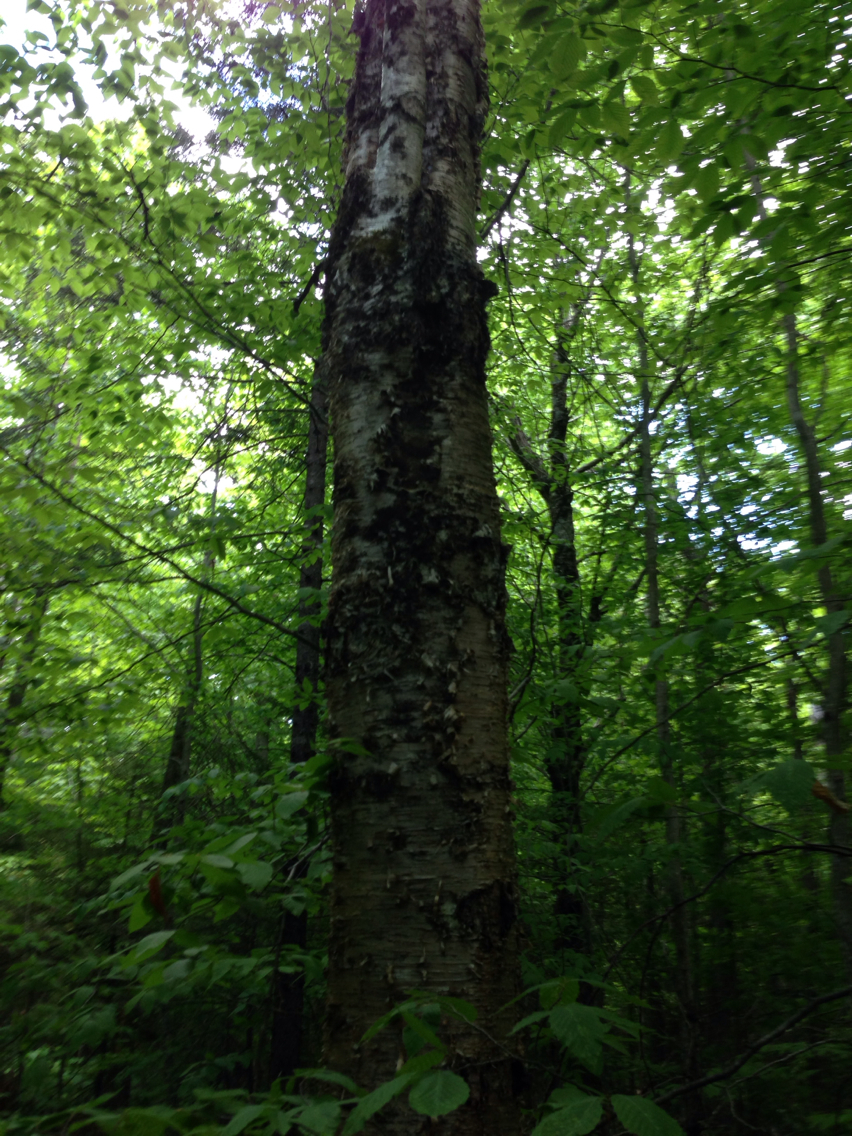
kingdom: Plantae
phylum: Tracheophyta
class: Magnoliopsida
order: Fagales
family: Betulaceae
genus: Betula
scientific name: Betula alleghaniensis
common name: Yellow birch
